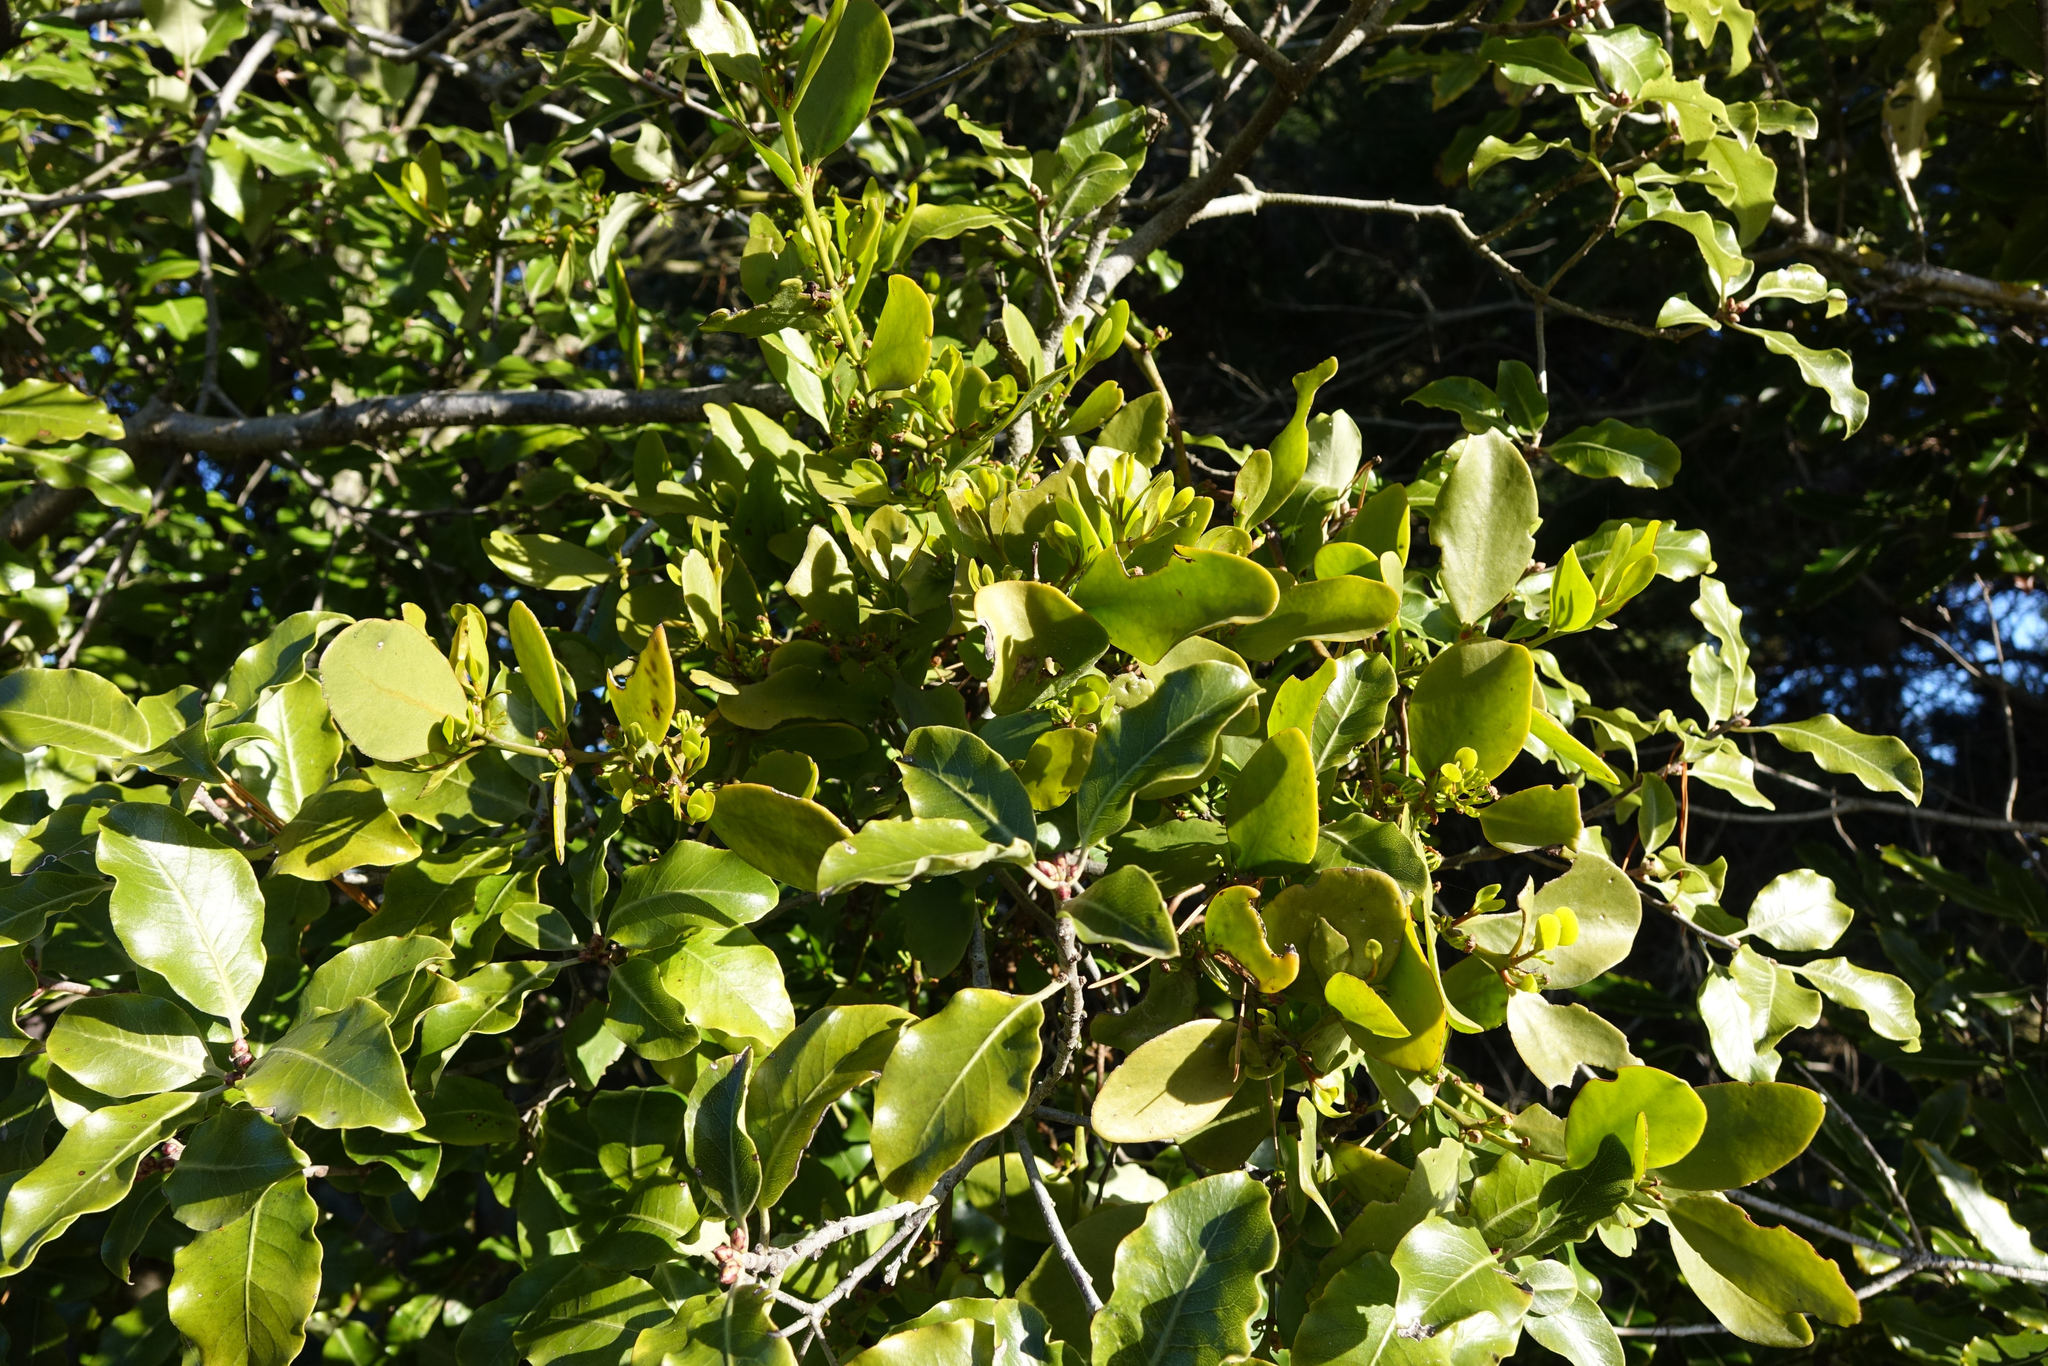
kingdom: Plantae
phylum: Tracheophyta
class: Magnoliopsida
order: Santalales
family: Loranthaceae
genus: Ileostylus
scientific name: Ileostylus micranthus
